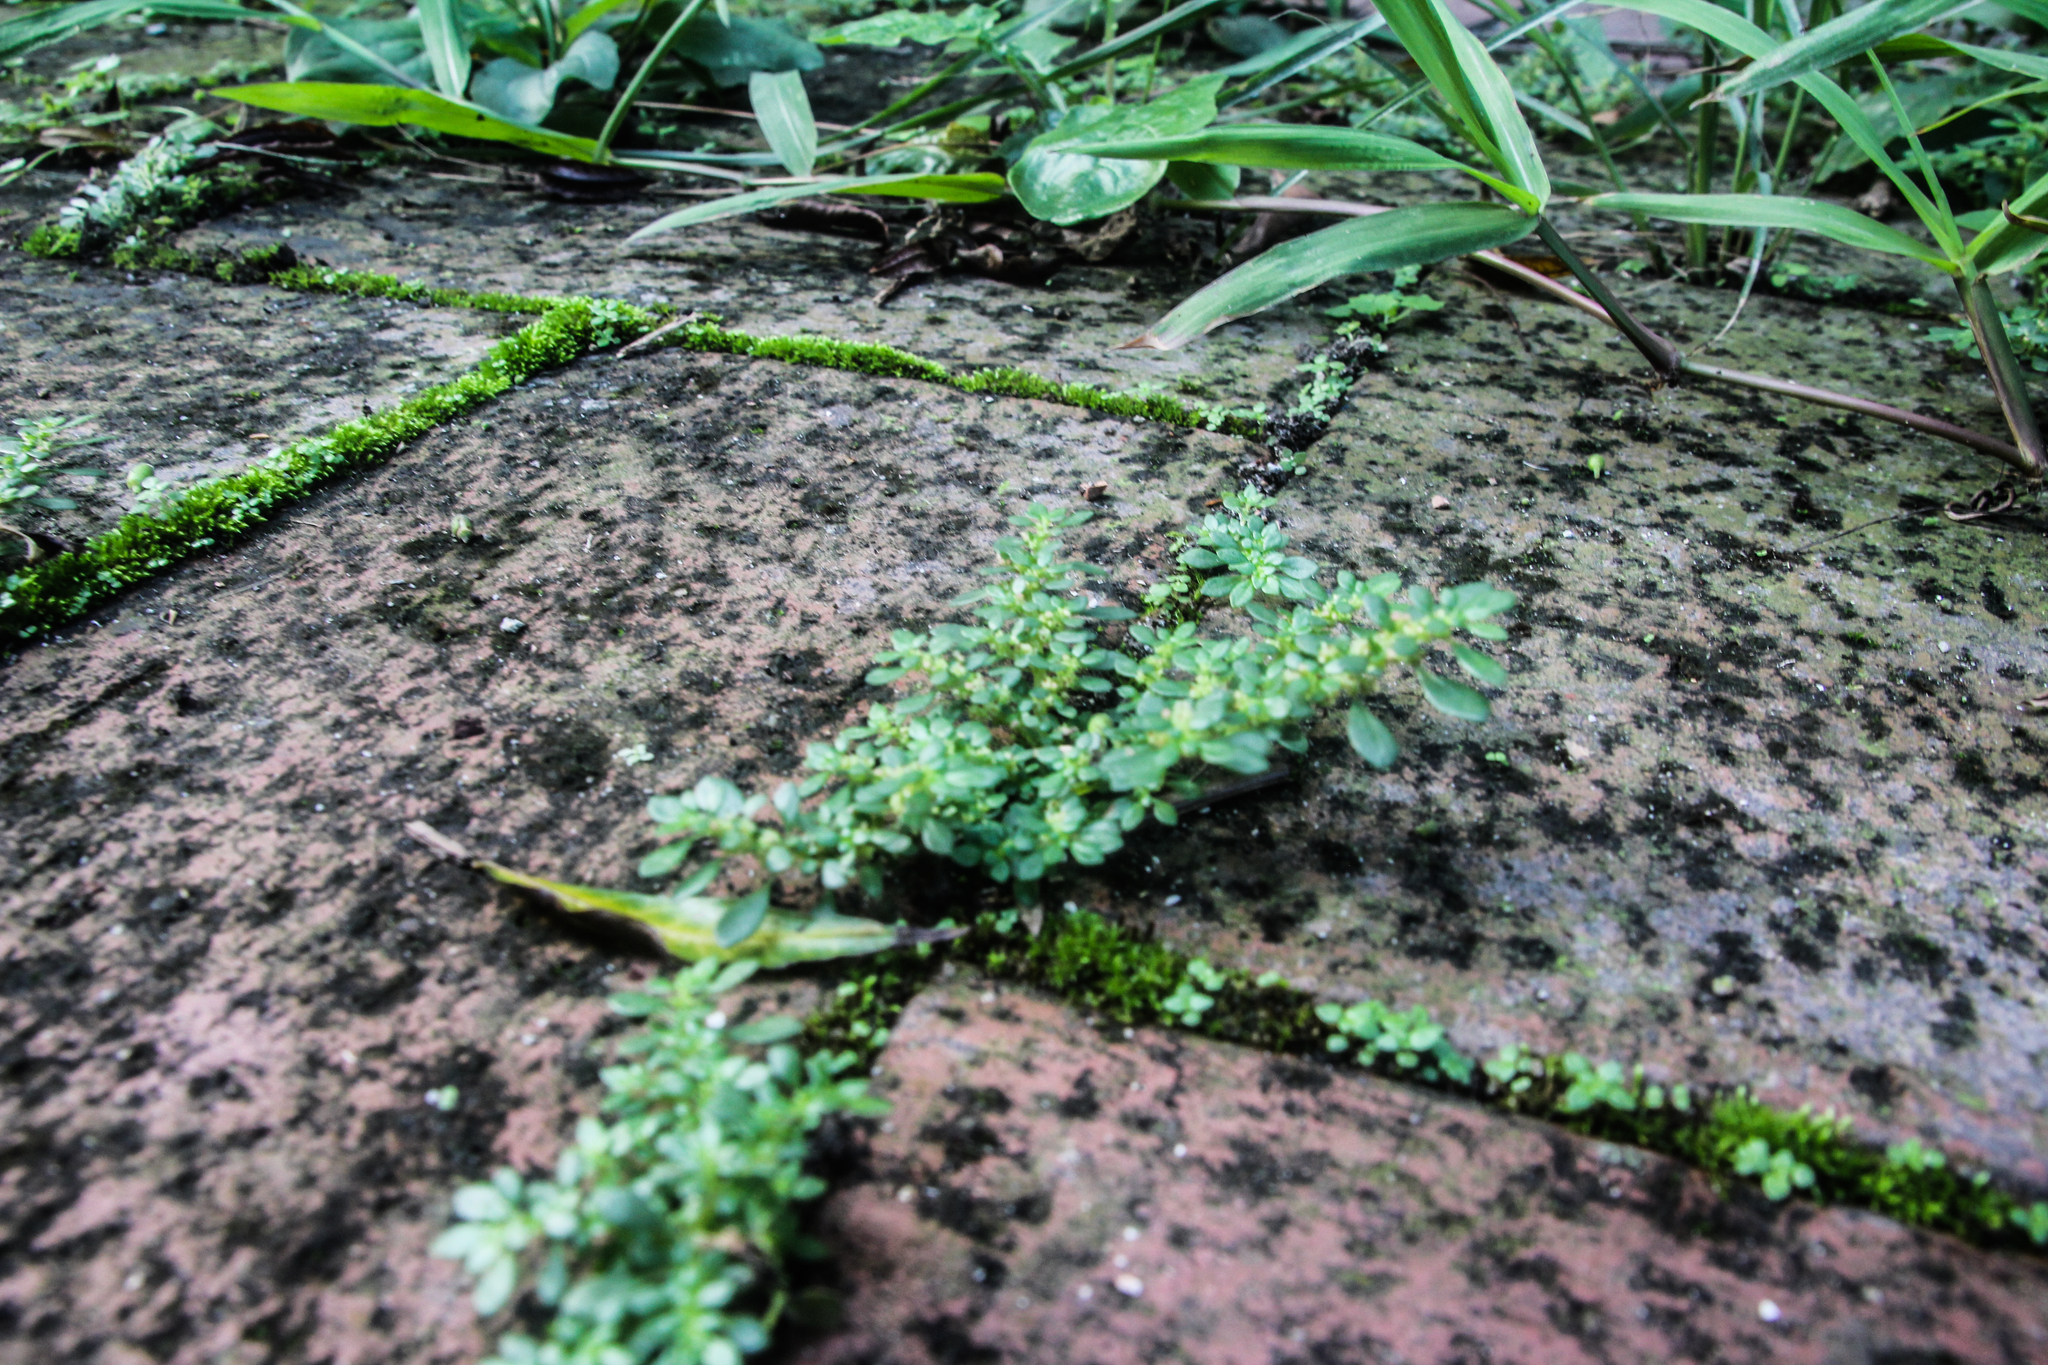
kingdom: Plantae
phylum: Tracheophyta
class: Magnoliopsida
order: Rosales
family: Urticaceae
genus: Pilea
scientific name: Pilea microphylla
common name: Artillery-plant
